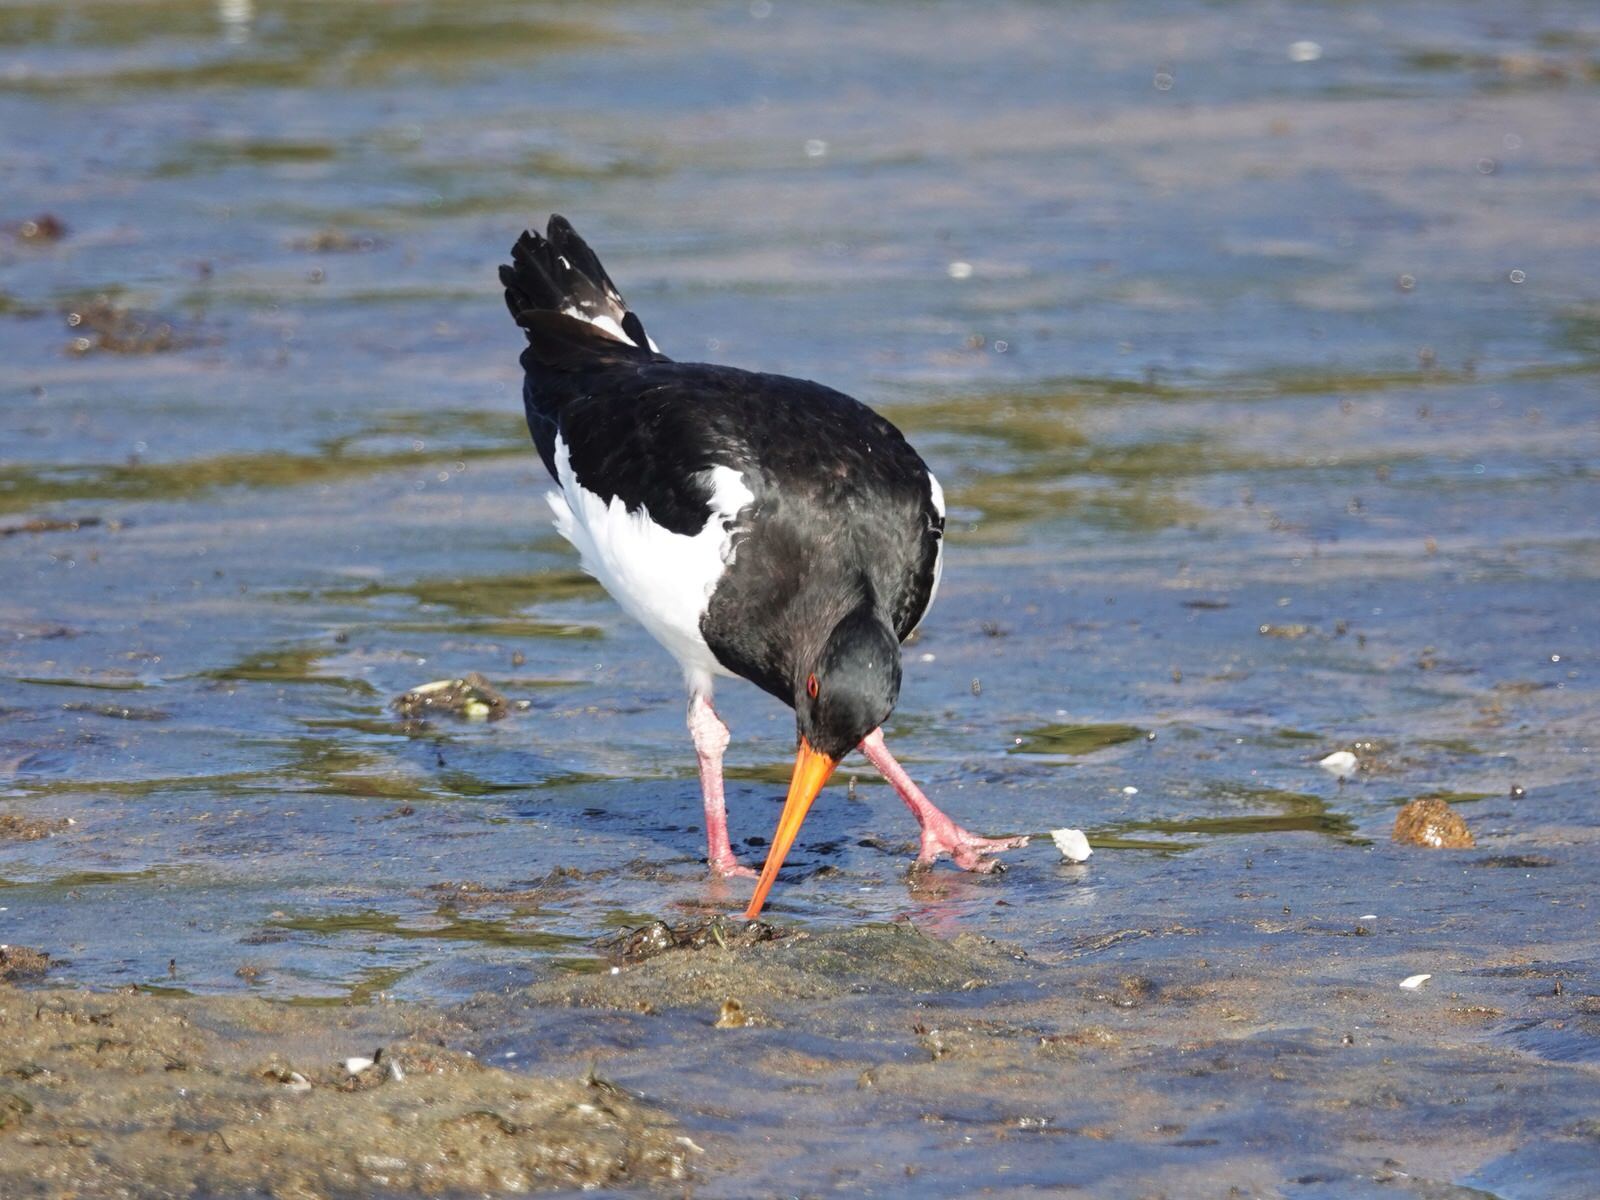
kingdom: Animalia
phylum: Chordata
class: Aves
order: Charadriiformes
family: Haematopodidae
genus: Haematopus
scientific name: Haematopus finschi
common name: South island oystercatcher
